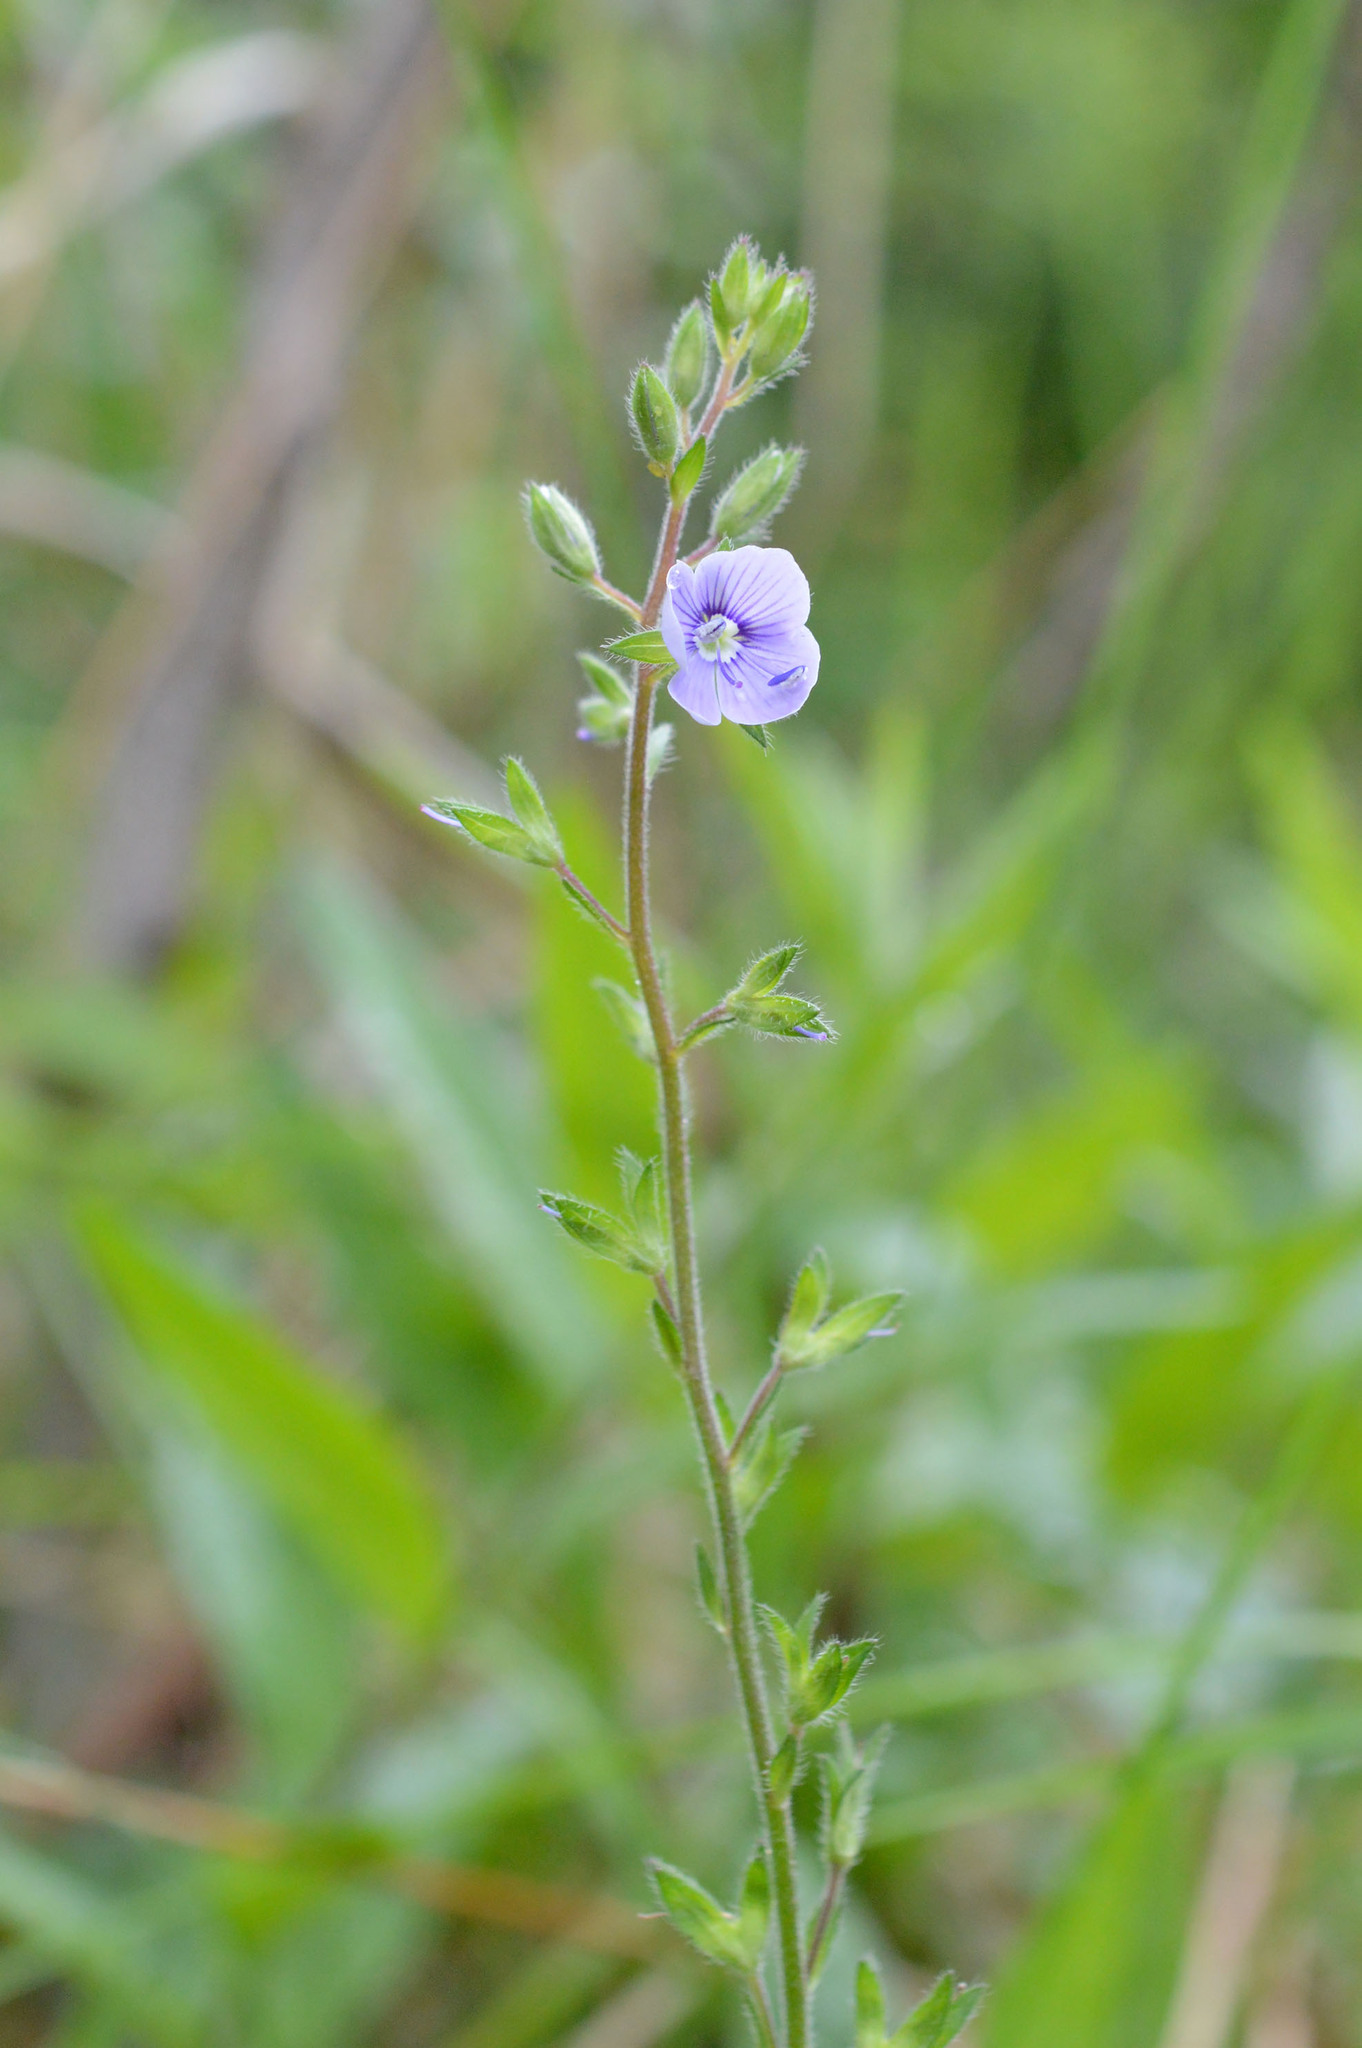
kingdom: Plantae
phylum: Tracheophyta
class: Magnoliopsida
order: Lamiales
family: Plantaginaceae
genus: Veronica
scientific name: Veronica chamaedrys
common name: Germander speedwell
